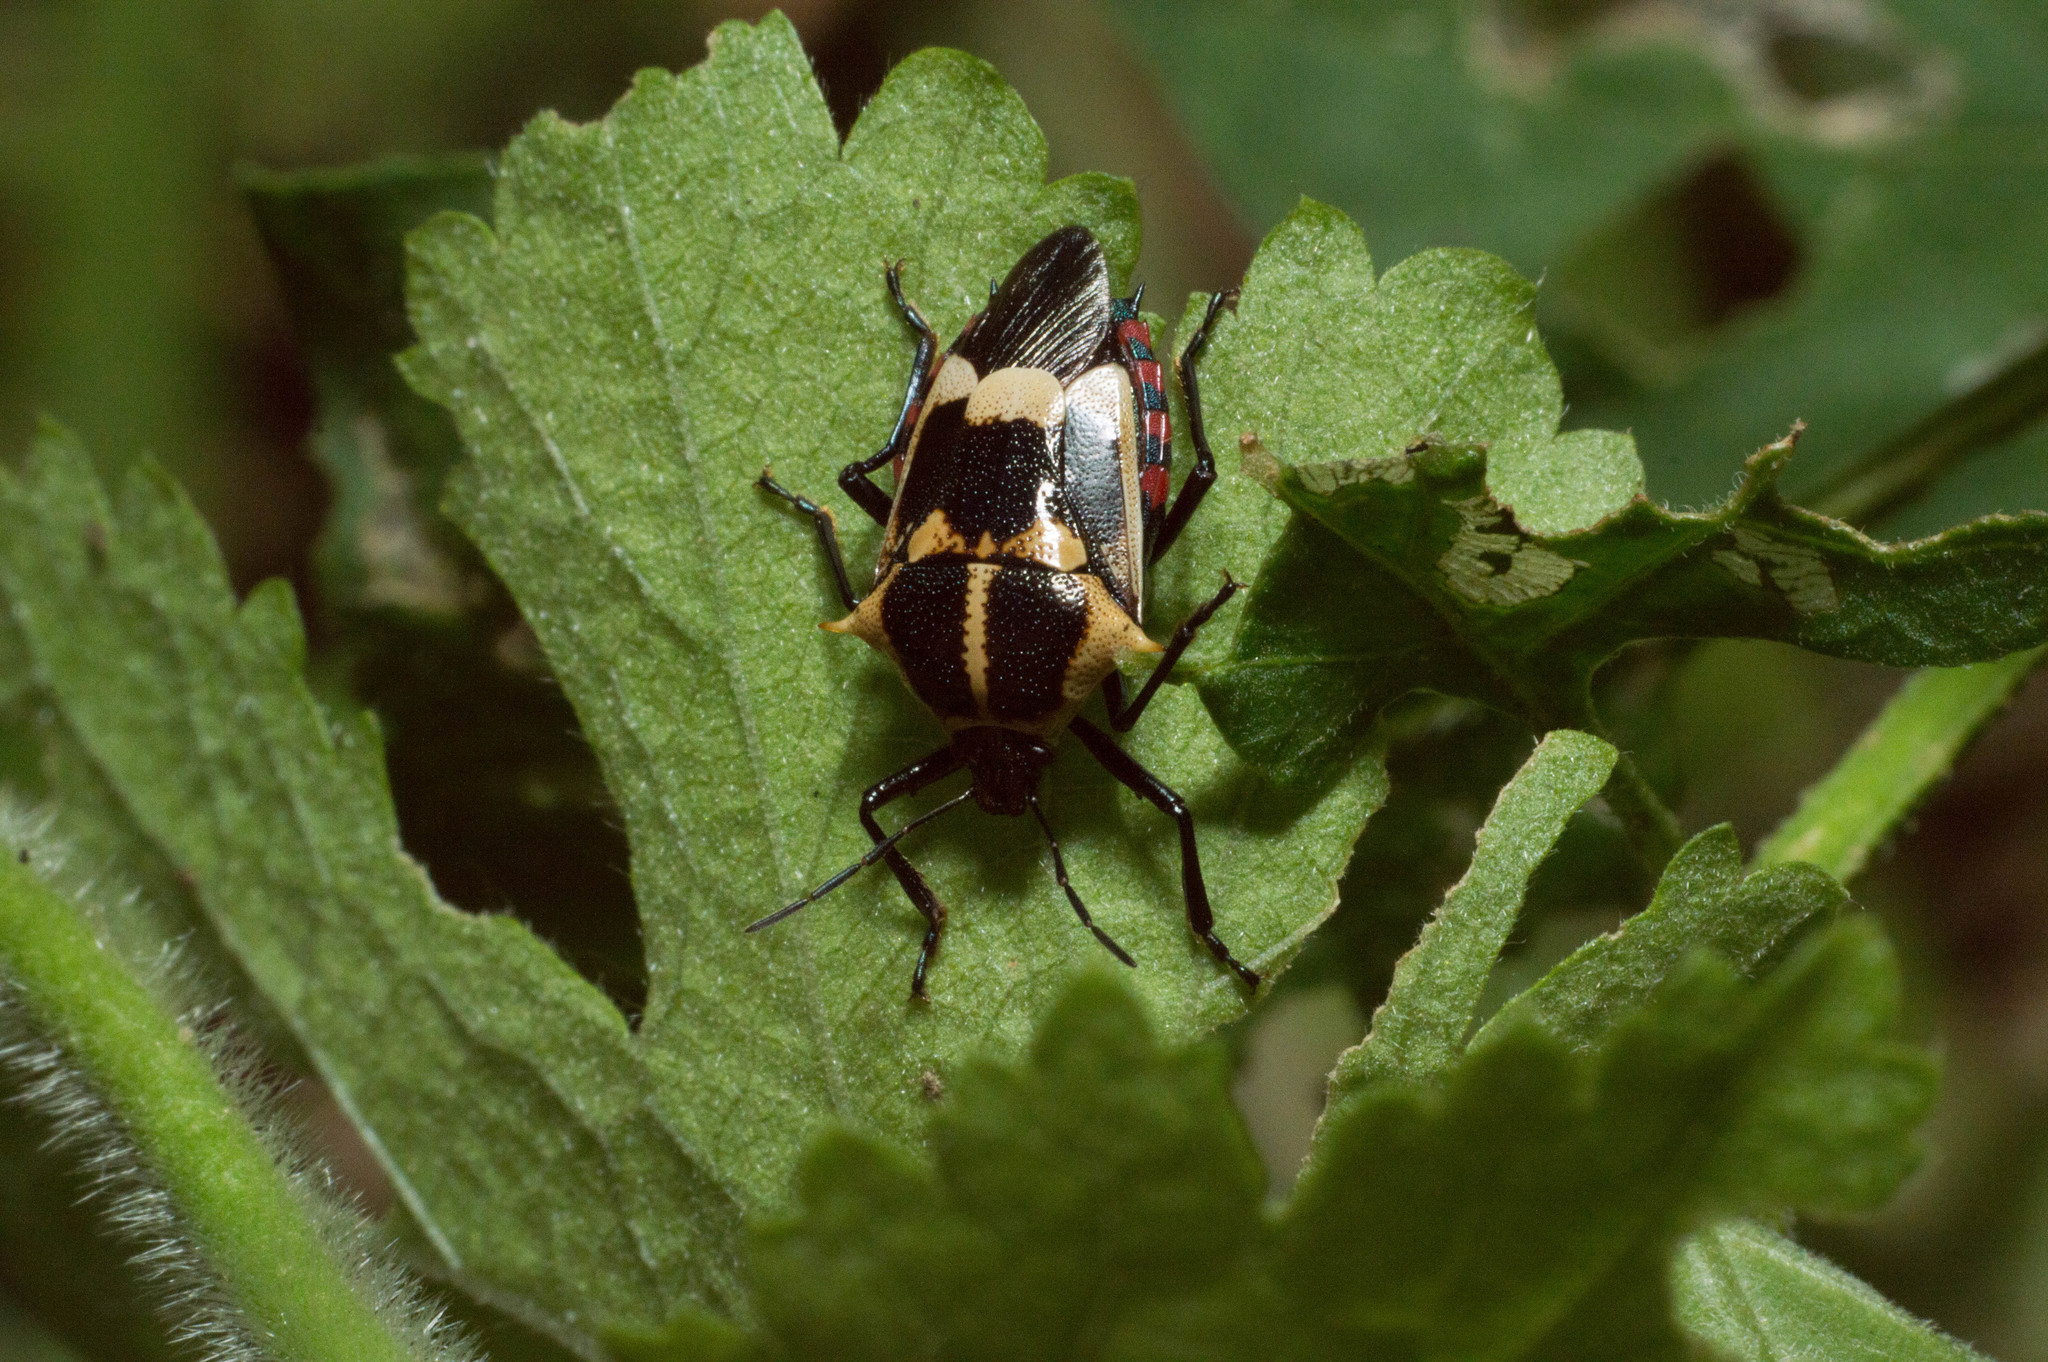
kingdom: Animalia
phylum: Arthropoda
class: Insecta
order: Hemiptera
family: Pentatomidae
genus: Oplomus
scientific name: Oplomus cruentus
